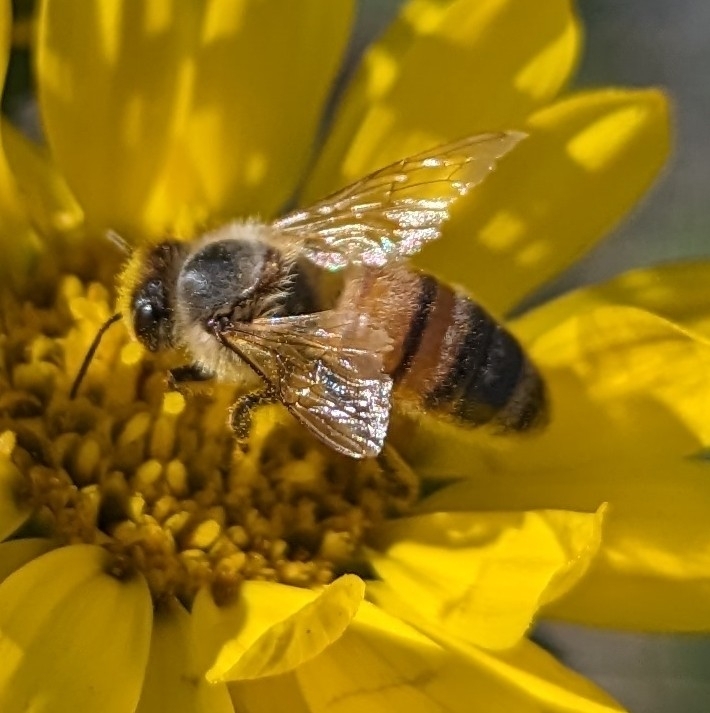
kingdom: Animalia
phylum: Arthropoda
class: Insecta
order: Hymenoptera
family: Apidae
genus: Apis
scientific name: Apis mellifera
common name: Honey bee
